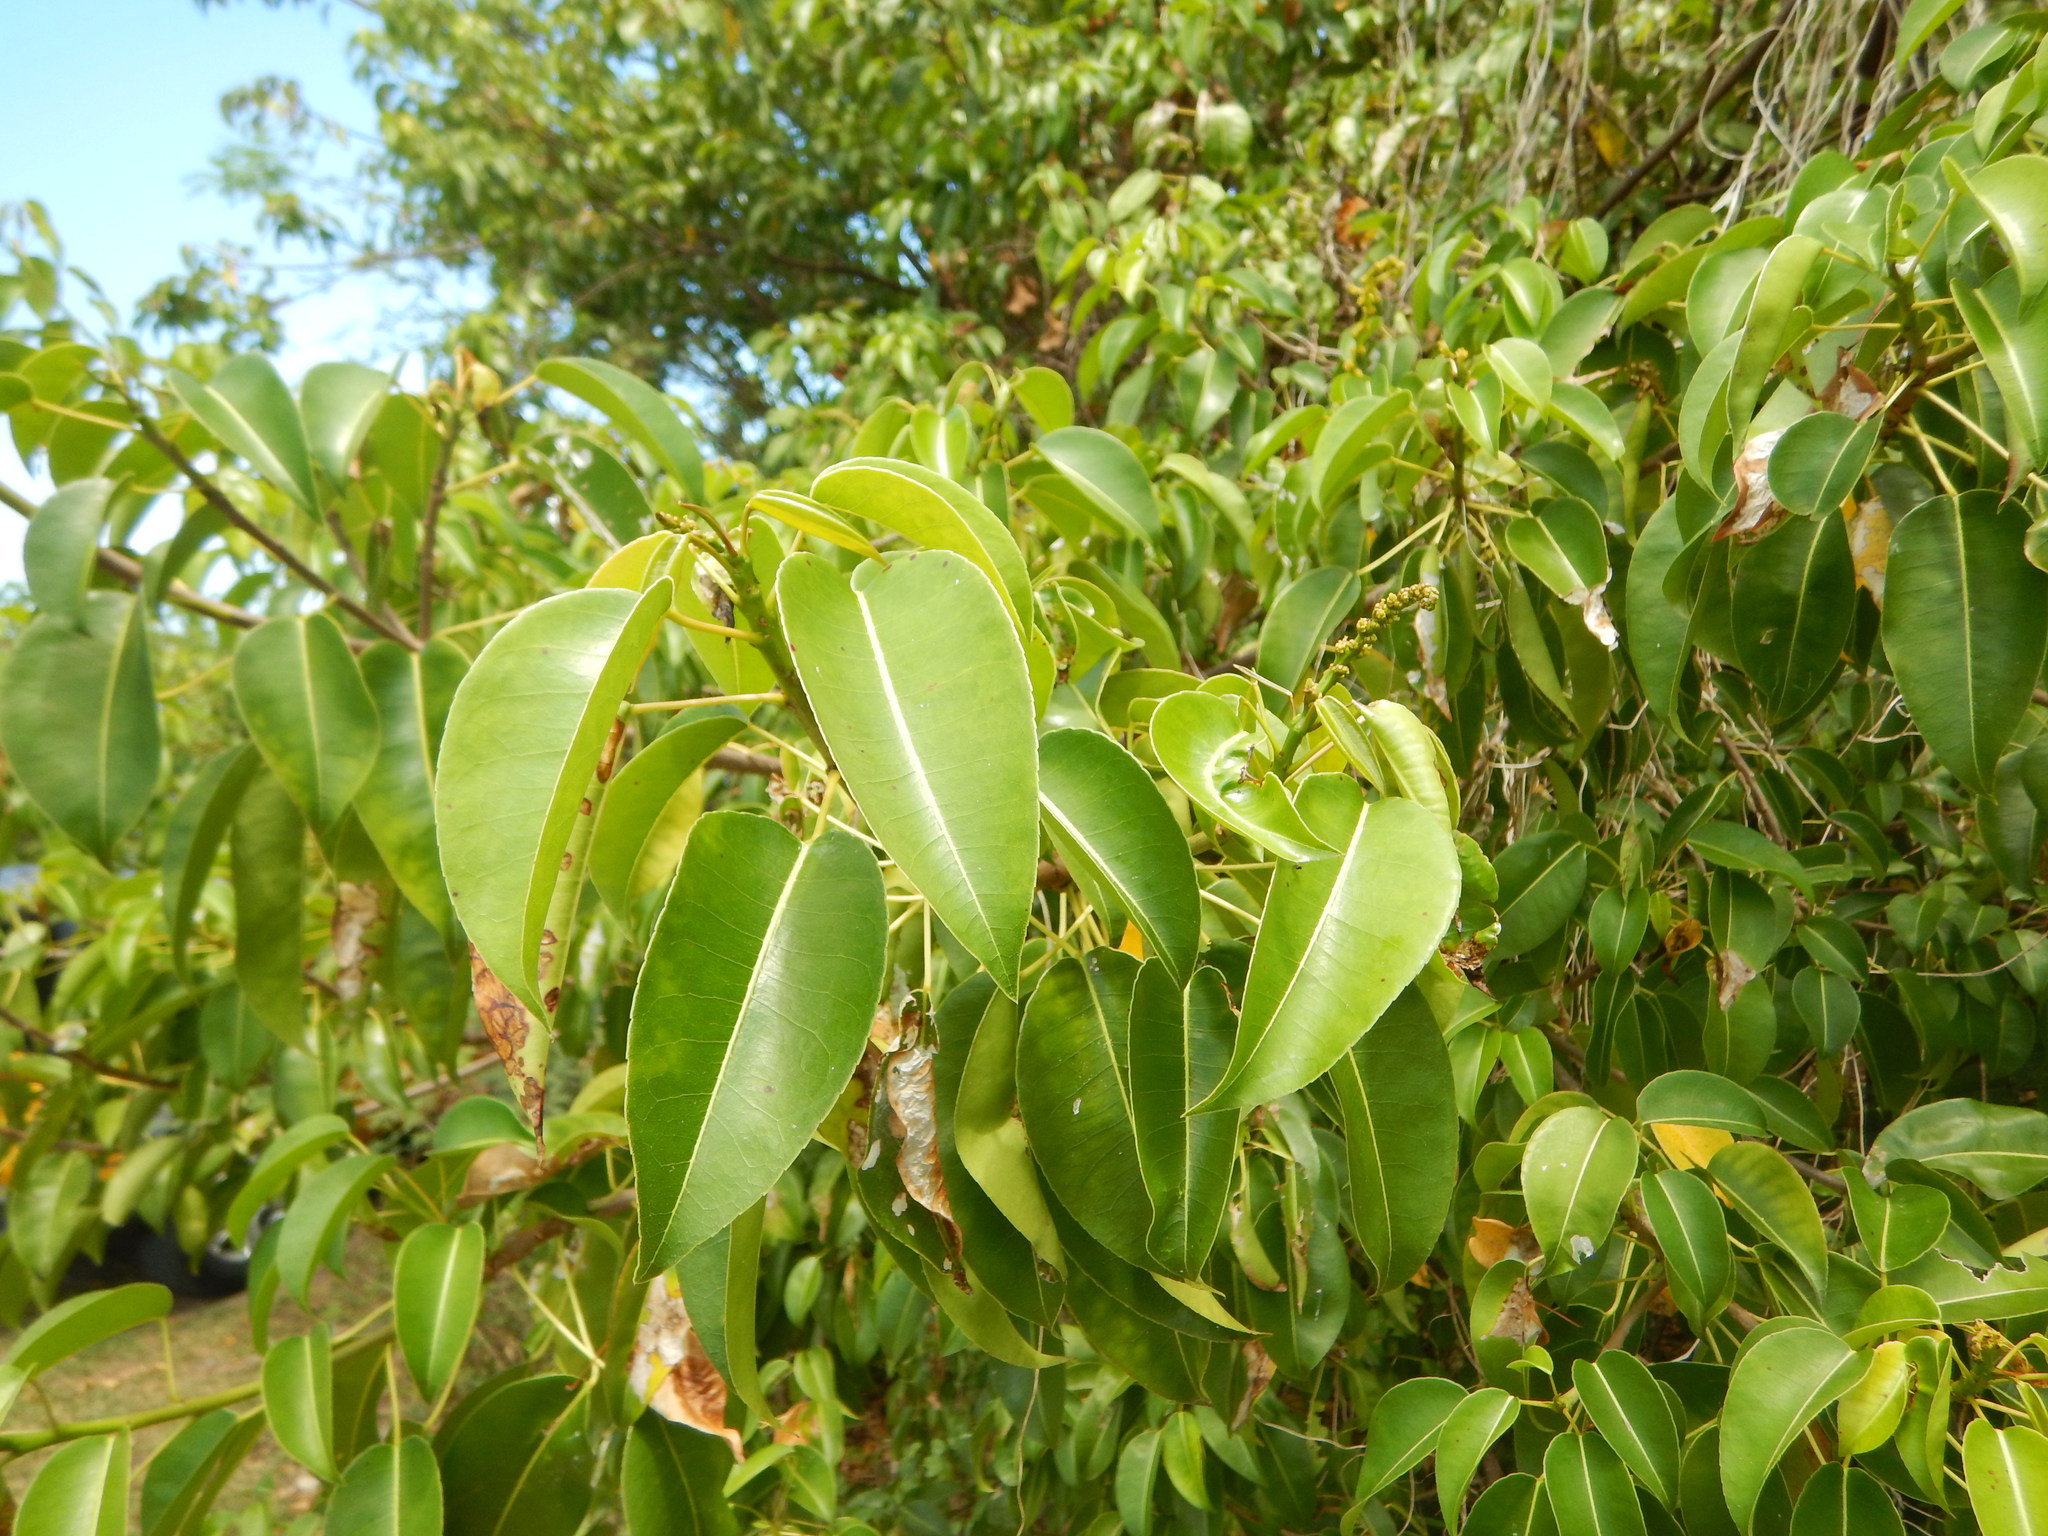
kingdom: Plantae
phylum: Tracheophyta
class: Magnoliopsida
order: Malpighiales
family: Euphorbiaceae
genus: Hippomane
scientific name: Hippomane mancinella
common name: Manchineel
